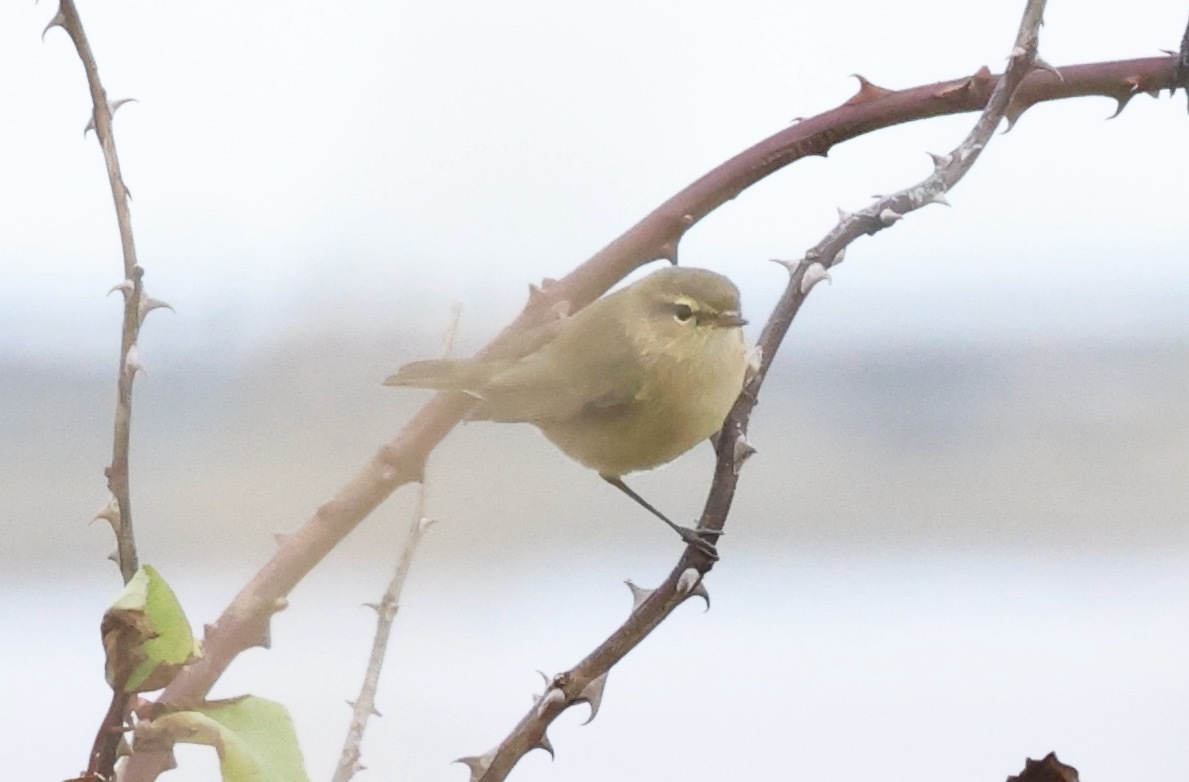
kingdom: Animalia
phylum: Chordata
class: Aves
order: Passeriformes
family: Phylloscopidae
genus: Phylloscopus
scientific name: Phylloscopus collybita
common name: Common chiffchaff
